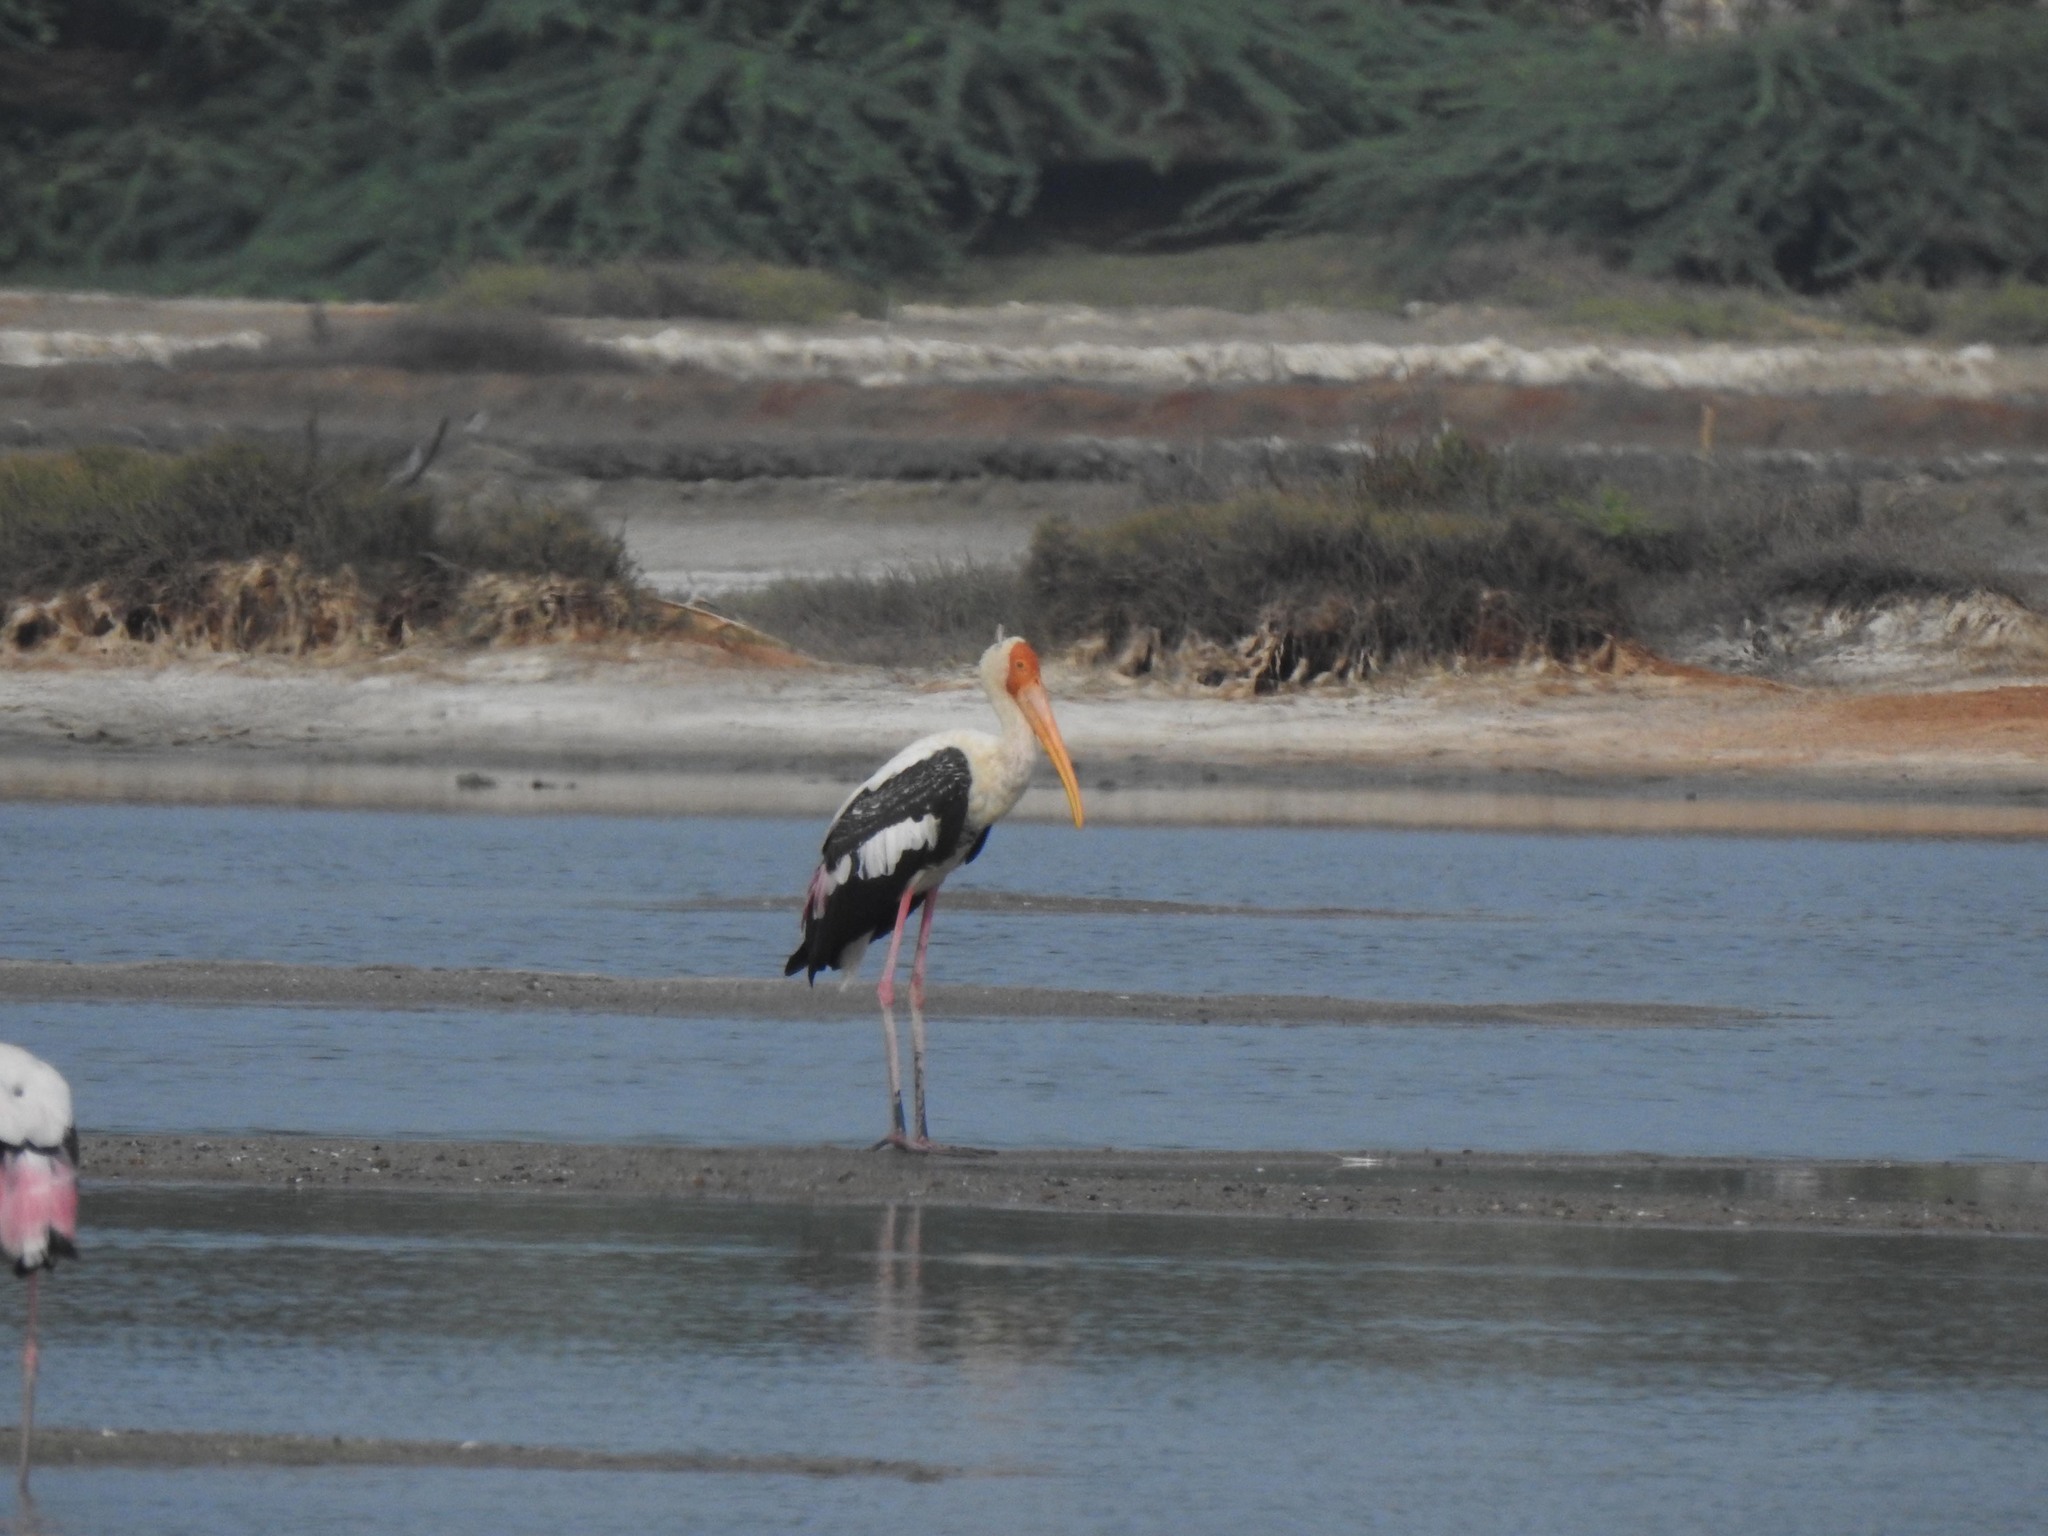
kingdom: Animalia
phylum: Chordata
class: Aves
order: Ciconiiformes
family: Ciconiidae
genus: Mycteria
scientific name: Mycteria leucocephala
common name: Painted stork
